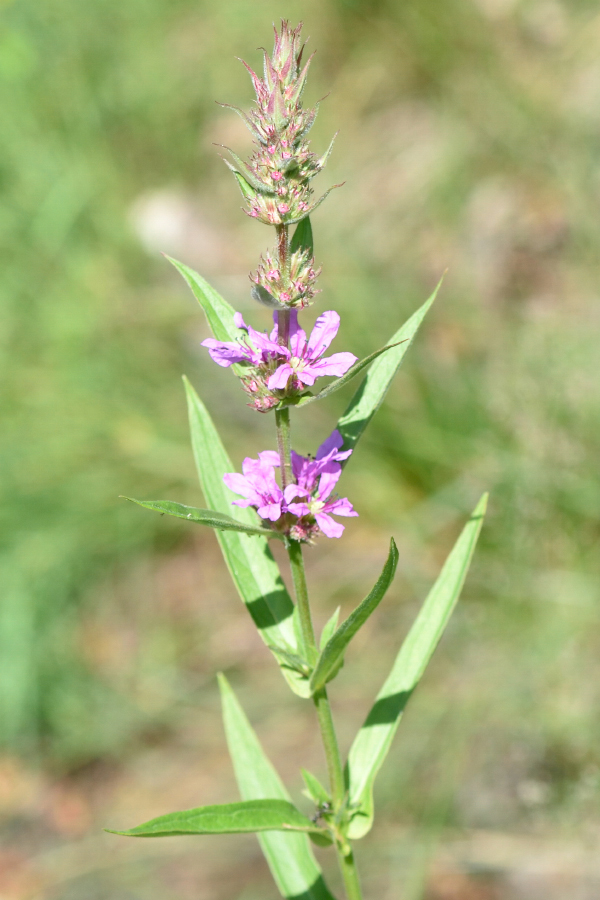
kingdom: Plantae
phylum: Tracheophyta
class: Magnoliopsida
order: Myrtales
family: Lythraceae
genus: Lythrum
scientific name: Lythrum salicaria
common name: Purple loosestrife
